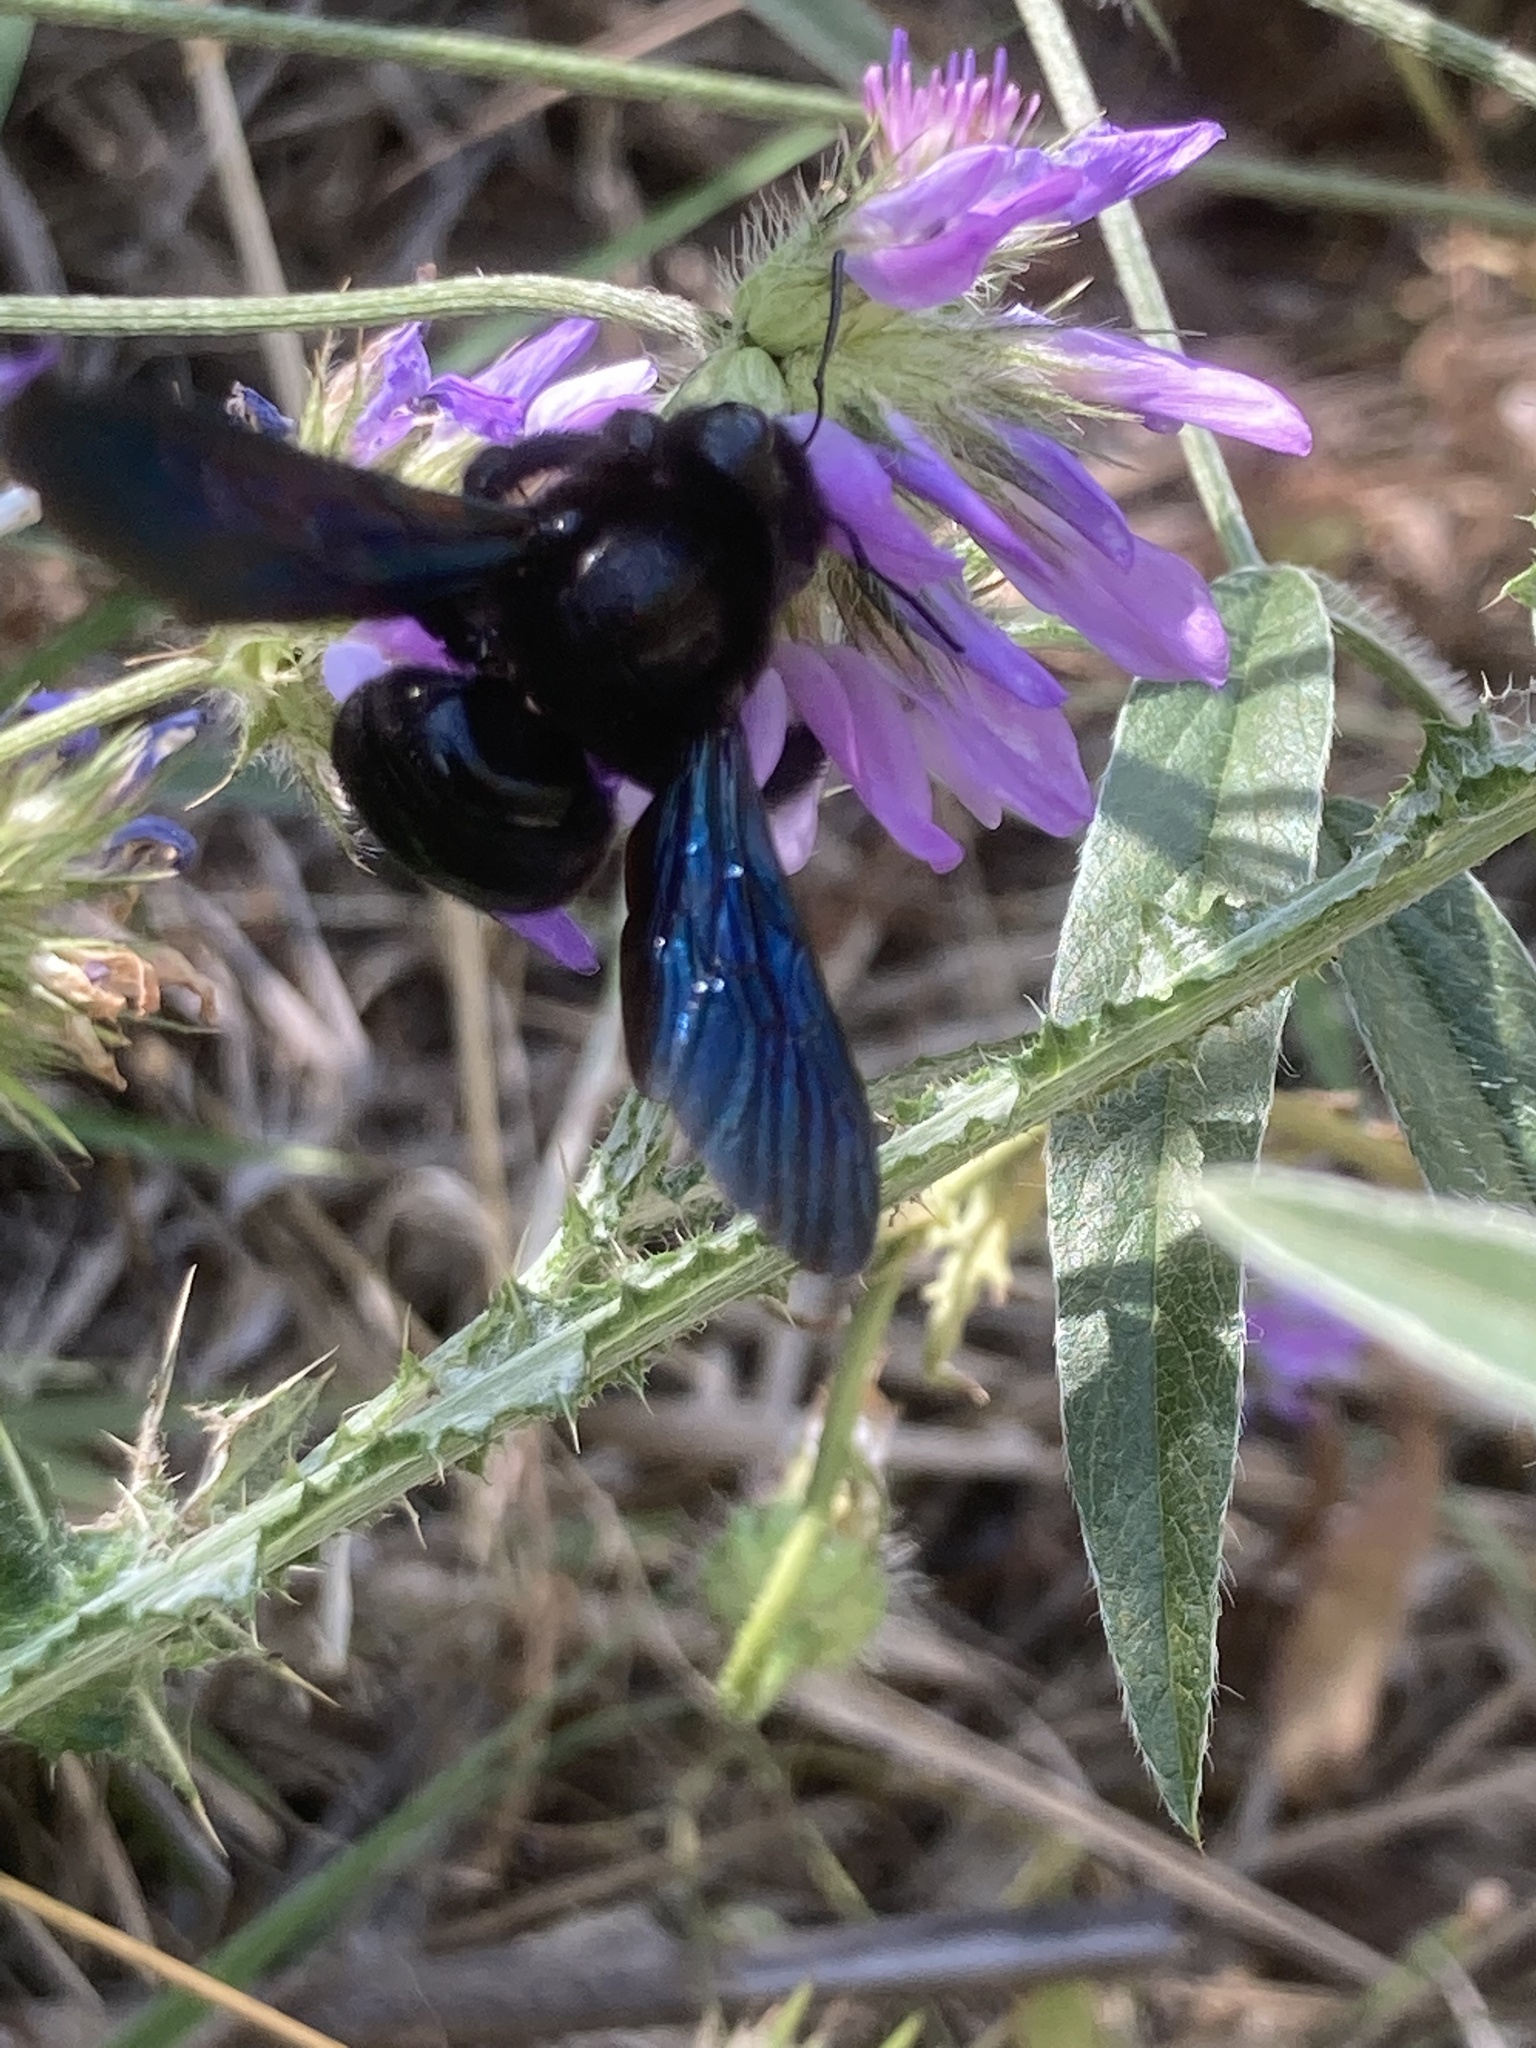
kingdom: Plantae
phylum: Tracheophyta
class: Magnoliopsida
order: Fabales
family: Fabaceae
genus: Bituminaria
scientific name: Bituminaria bituminosa
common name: Arabian pea
